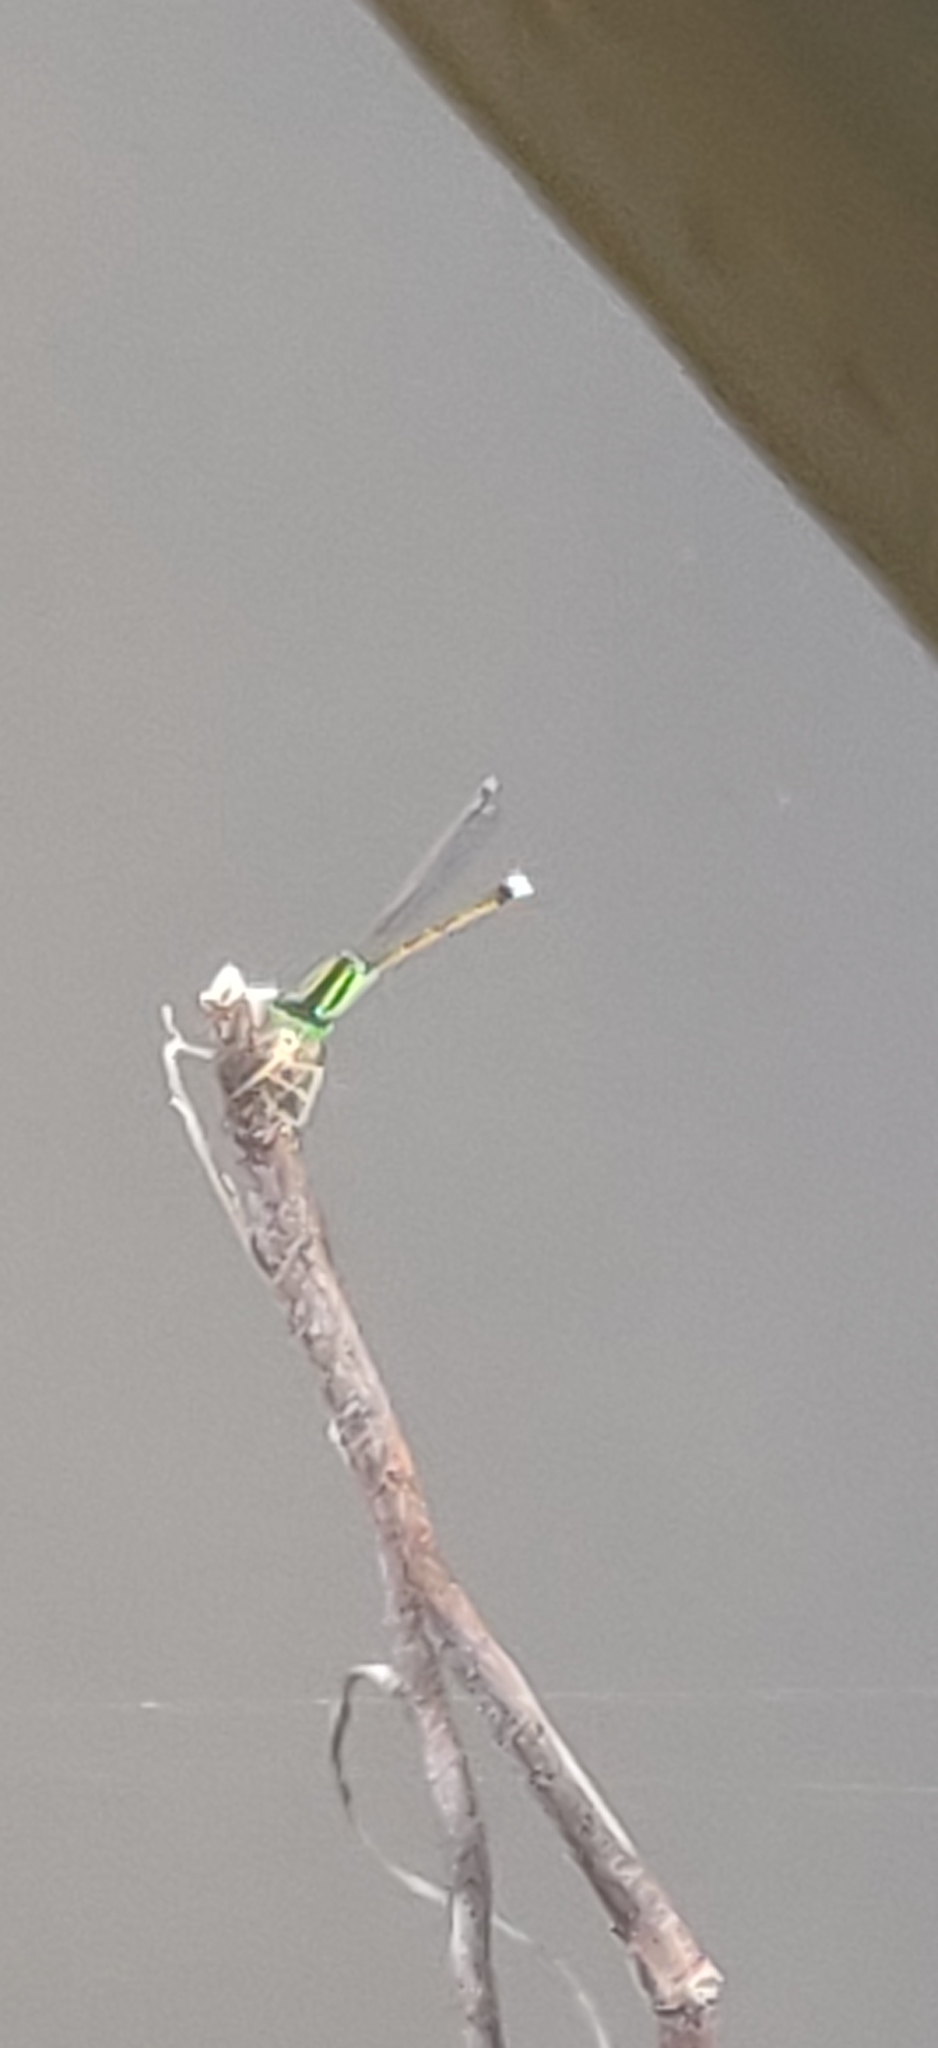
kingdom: Animalia
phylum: Arthropoda
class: Insecta
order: Odonata
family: Coenagrionidae
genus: Ischnura
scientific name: Ischnura ramburii
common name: Rambur's forktail
